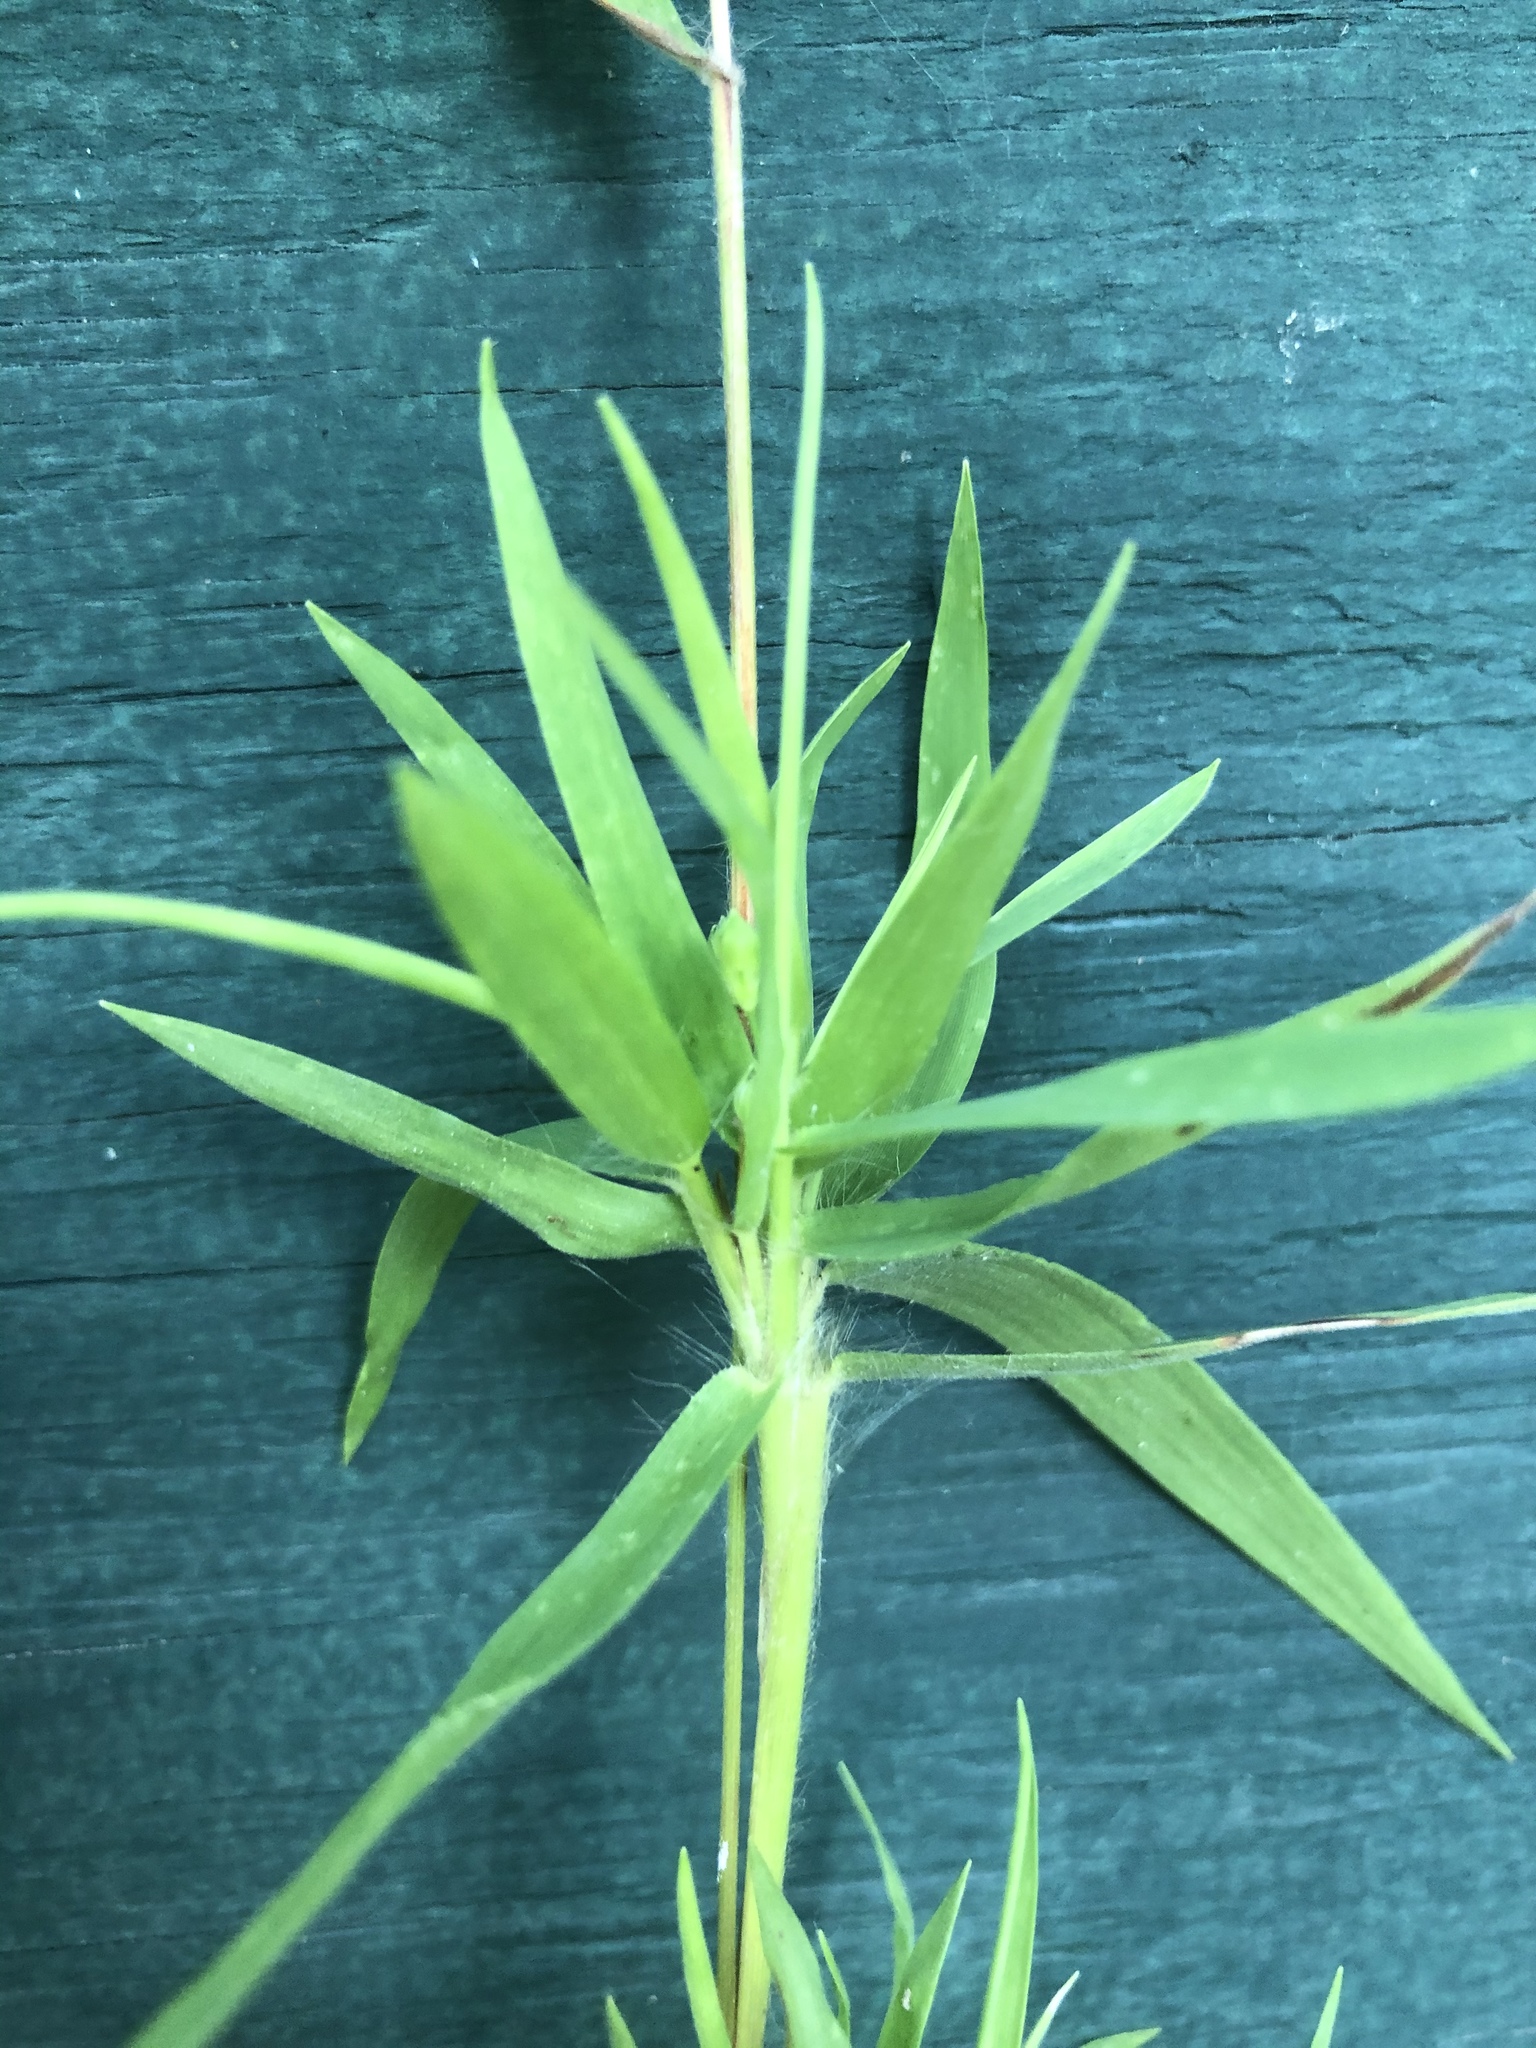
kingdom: Plantae
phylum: Tracheophyta
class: Liliopsida
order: Poales
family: Poaceae
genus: Dichanthelium
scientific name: Dichanthelium oligosanthes
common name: Few-anther obscuregrass
